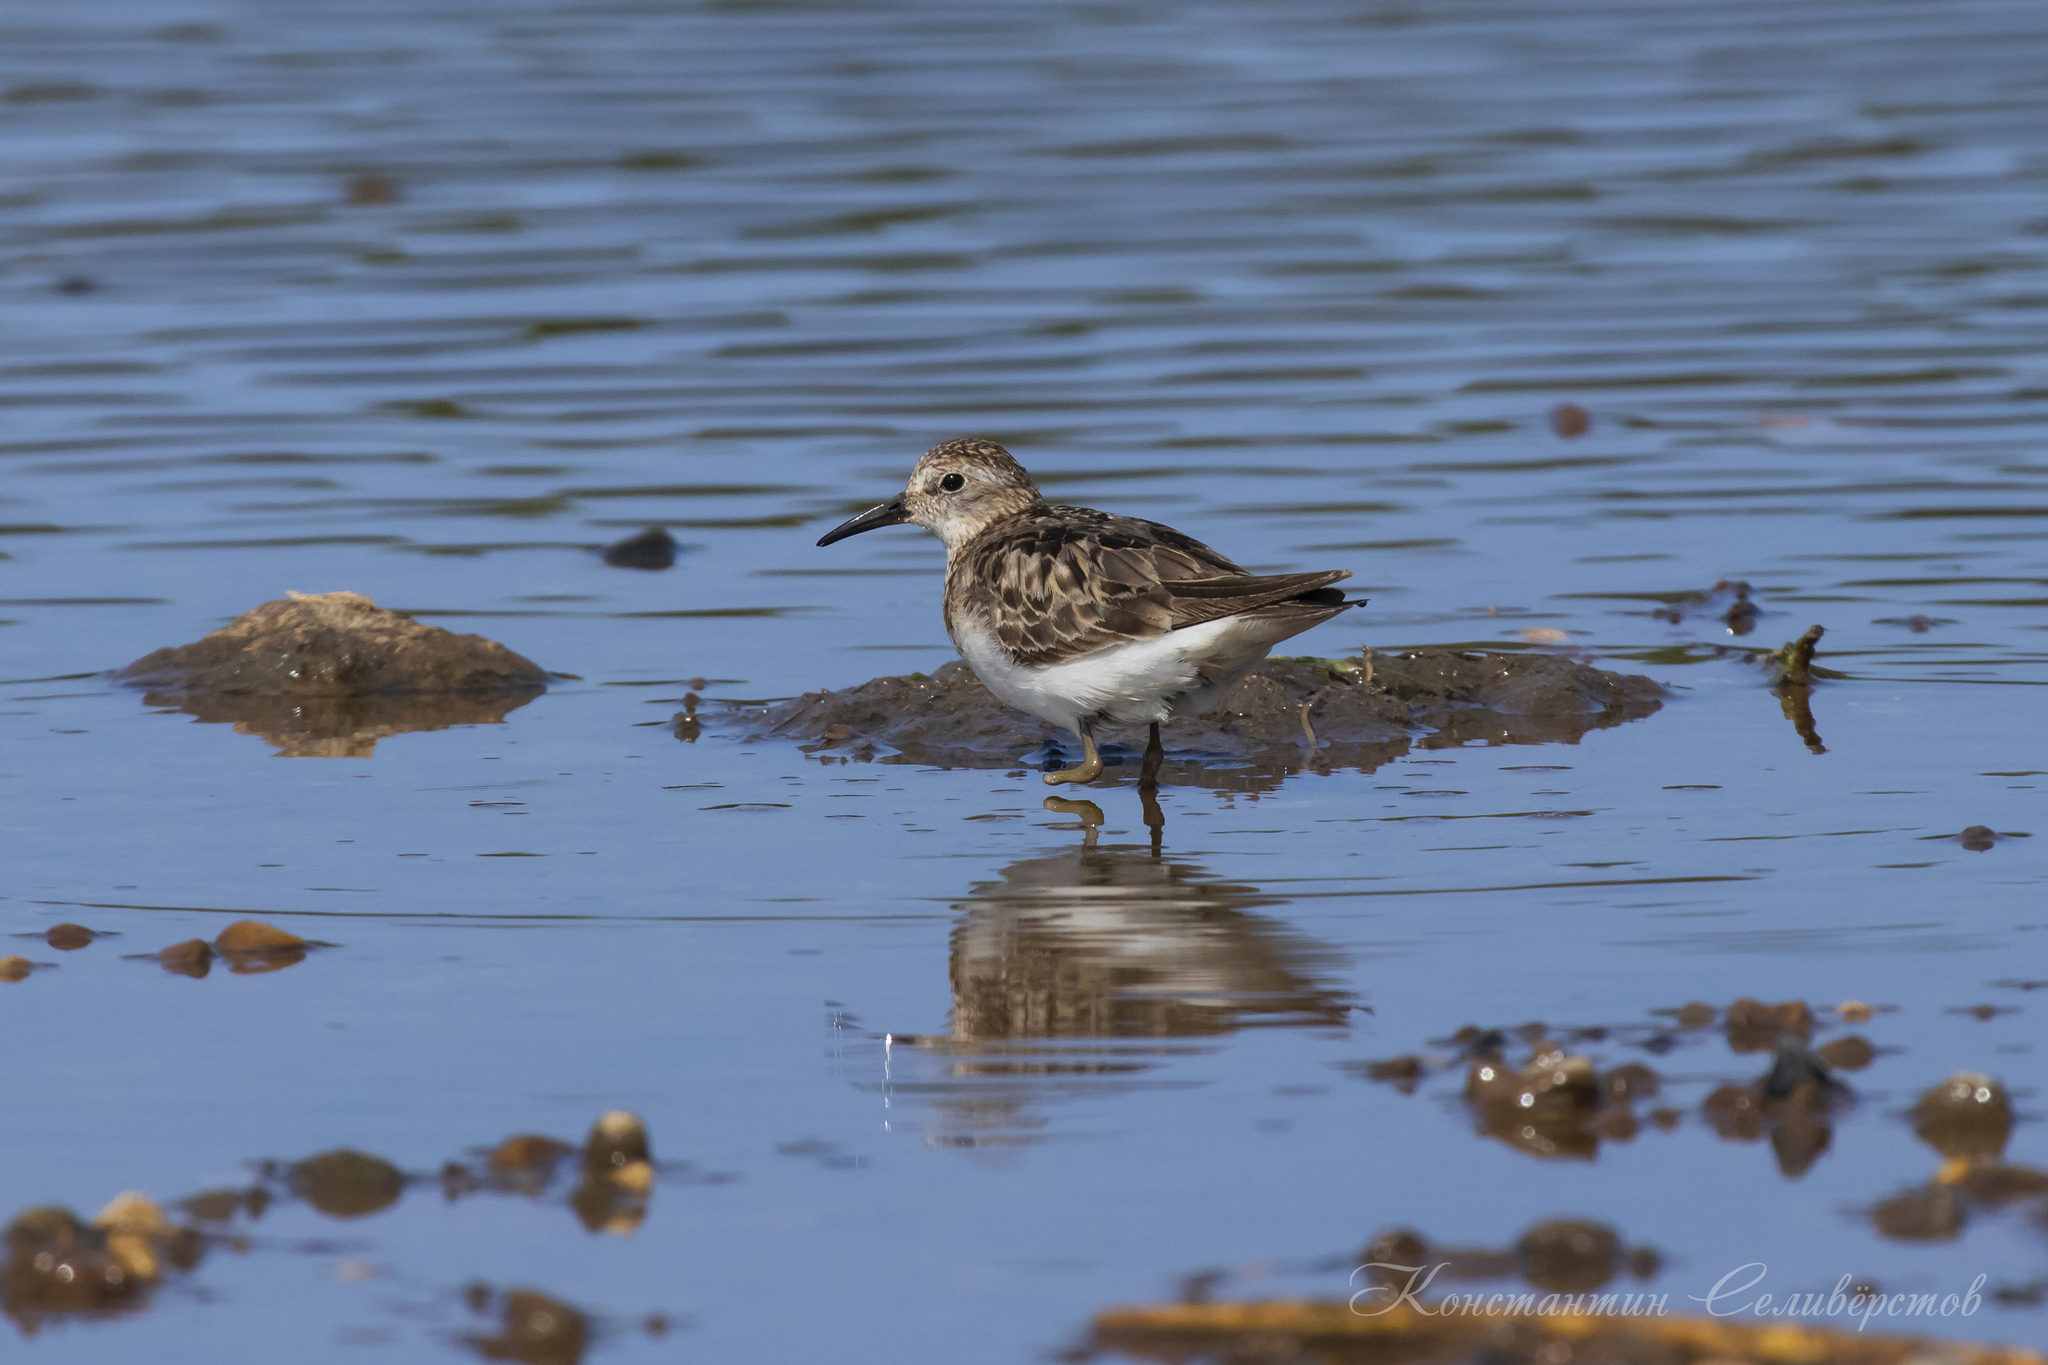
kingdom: Animalia
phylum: Chordata
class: Aves
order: Charadriiformes
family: Scolopacidae
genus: Calidris
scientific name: Calidris temminckii
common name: Temminck's stint
